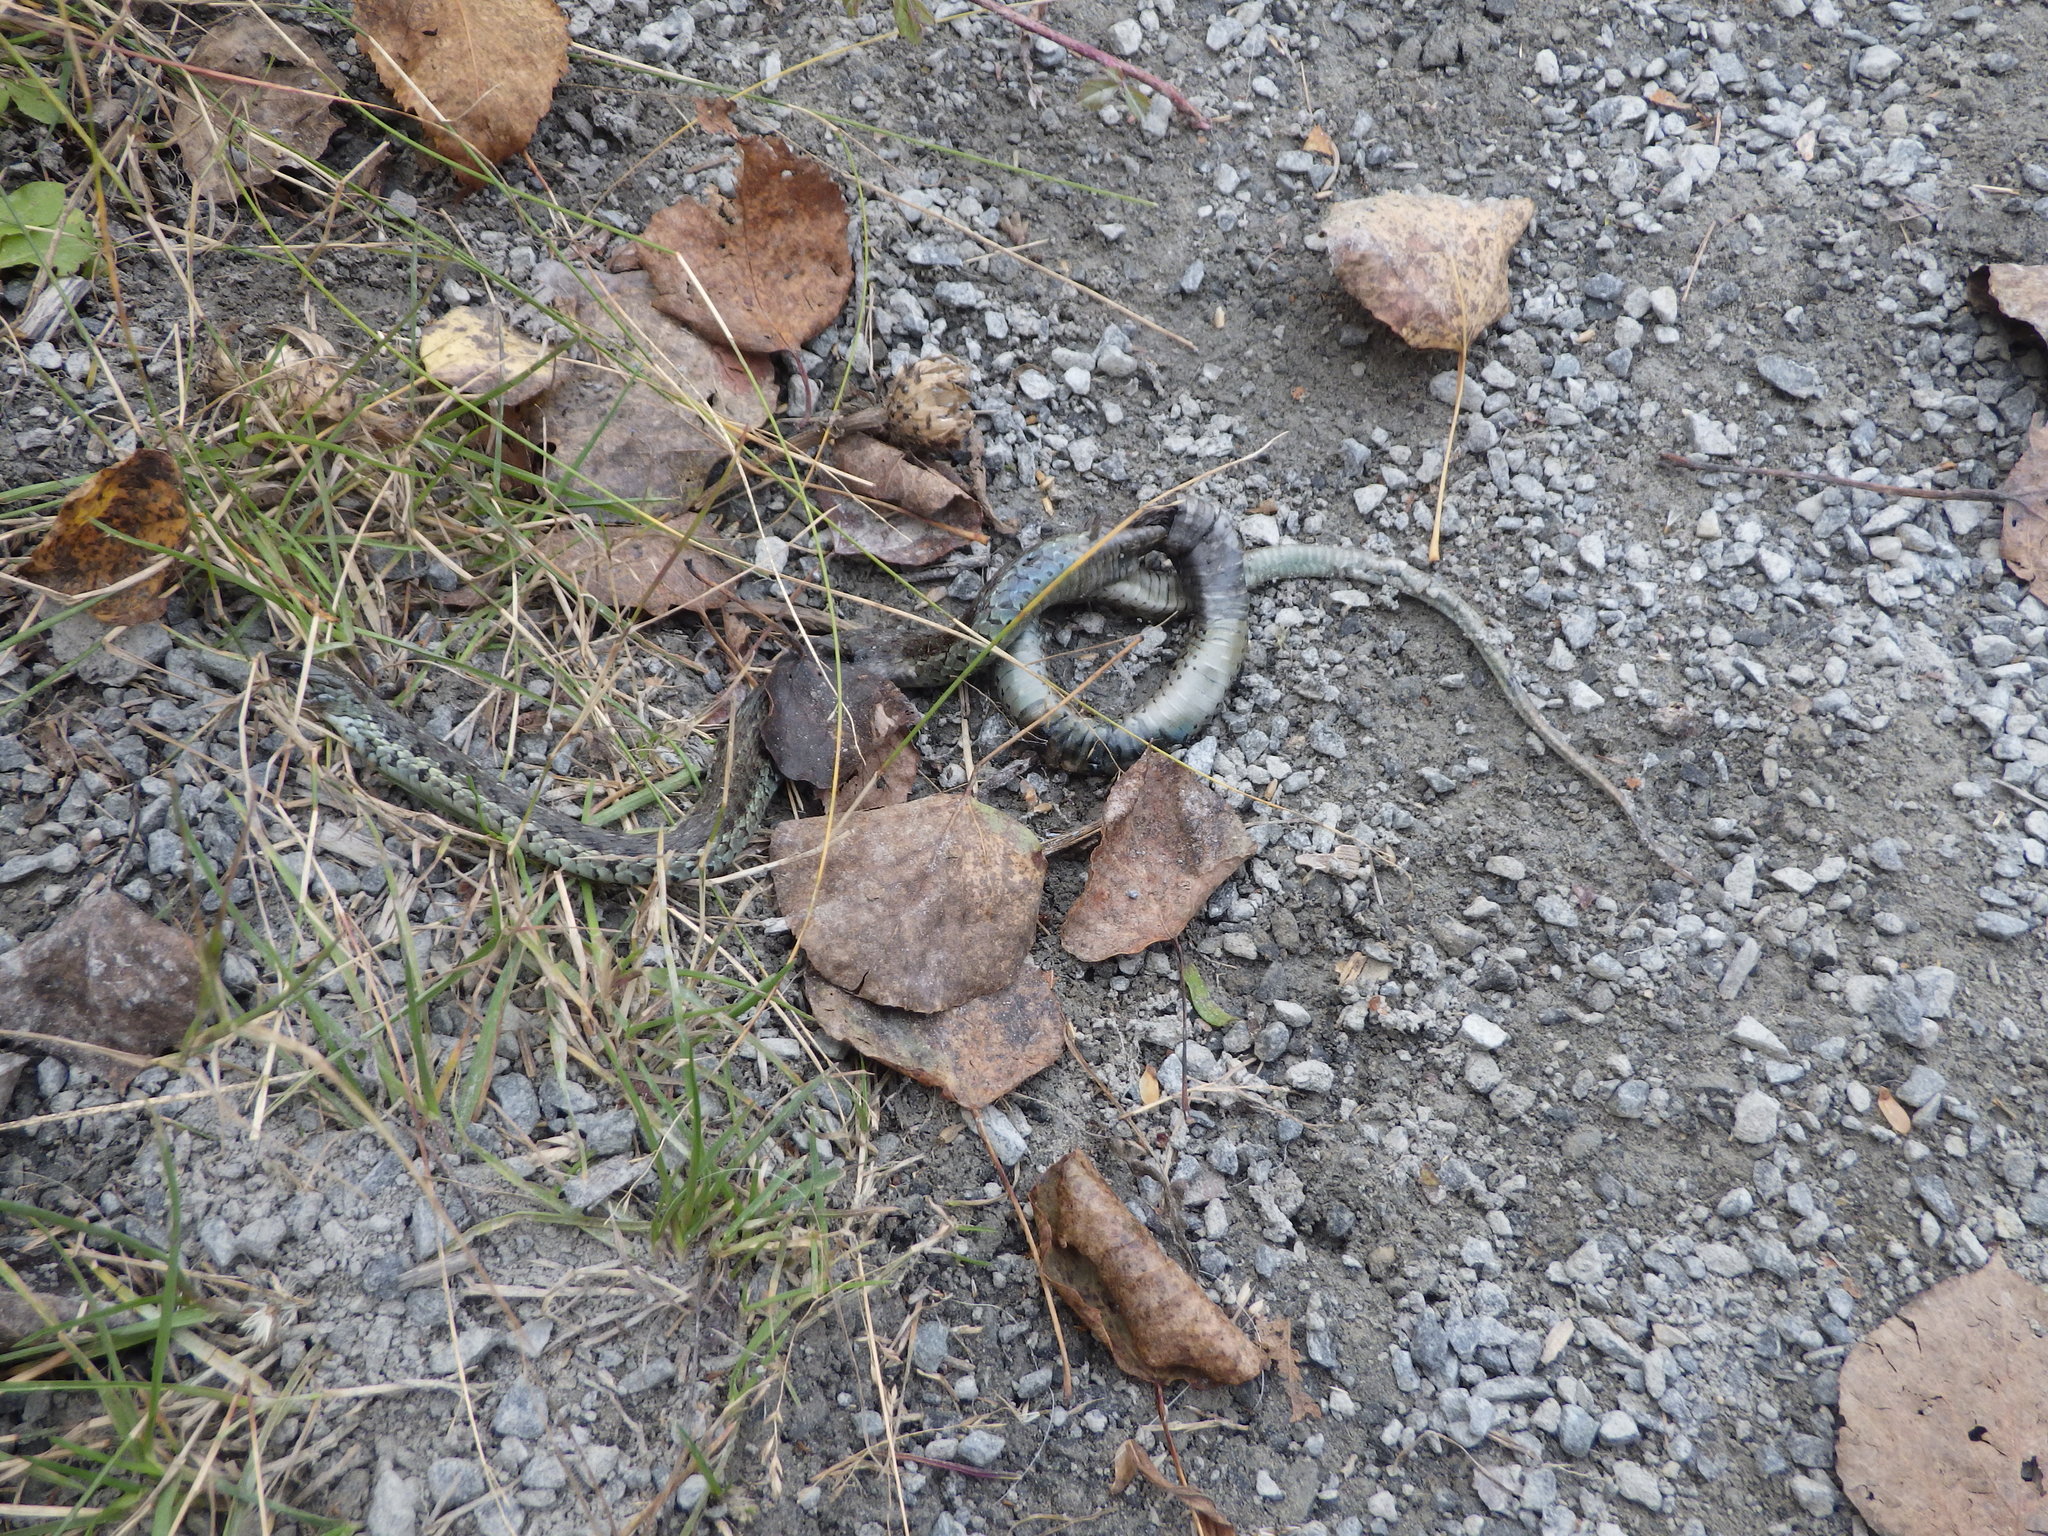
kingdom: Animalia
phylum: Chordata
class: Squamata
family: Colubridae
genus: Thamnophis
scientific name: Thamnophis sirtalis
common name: Common garter snake
